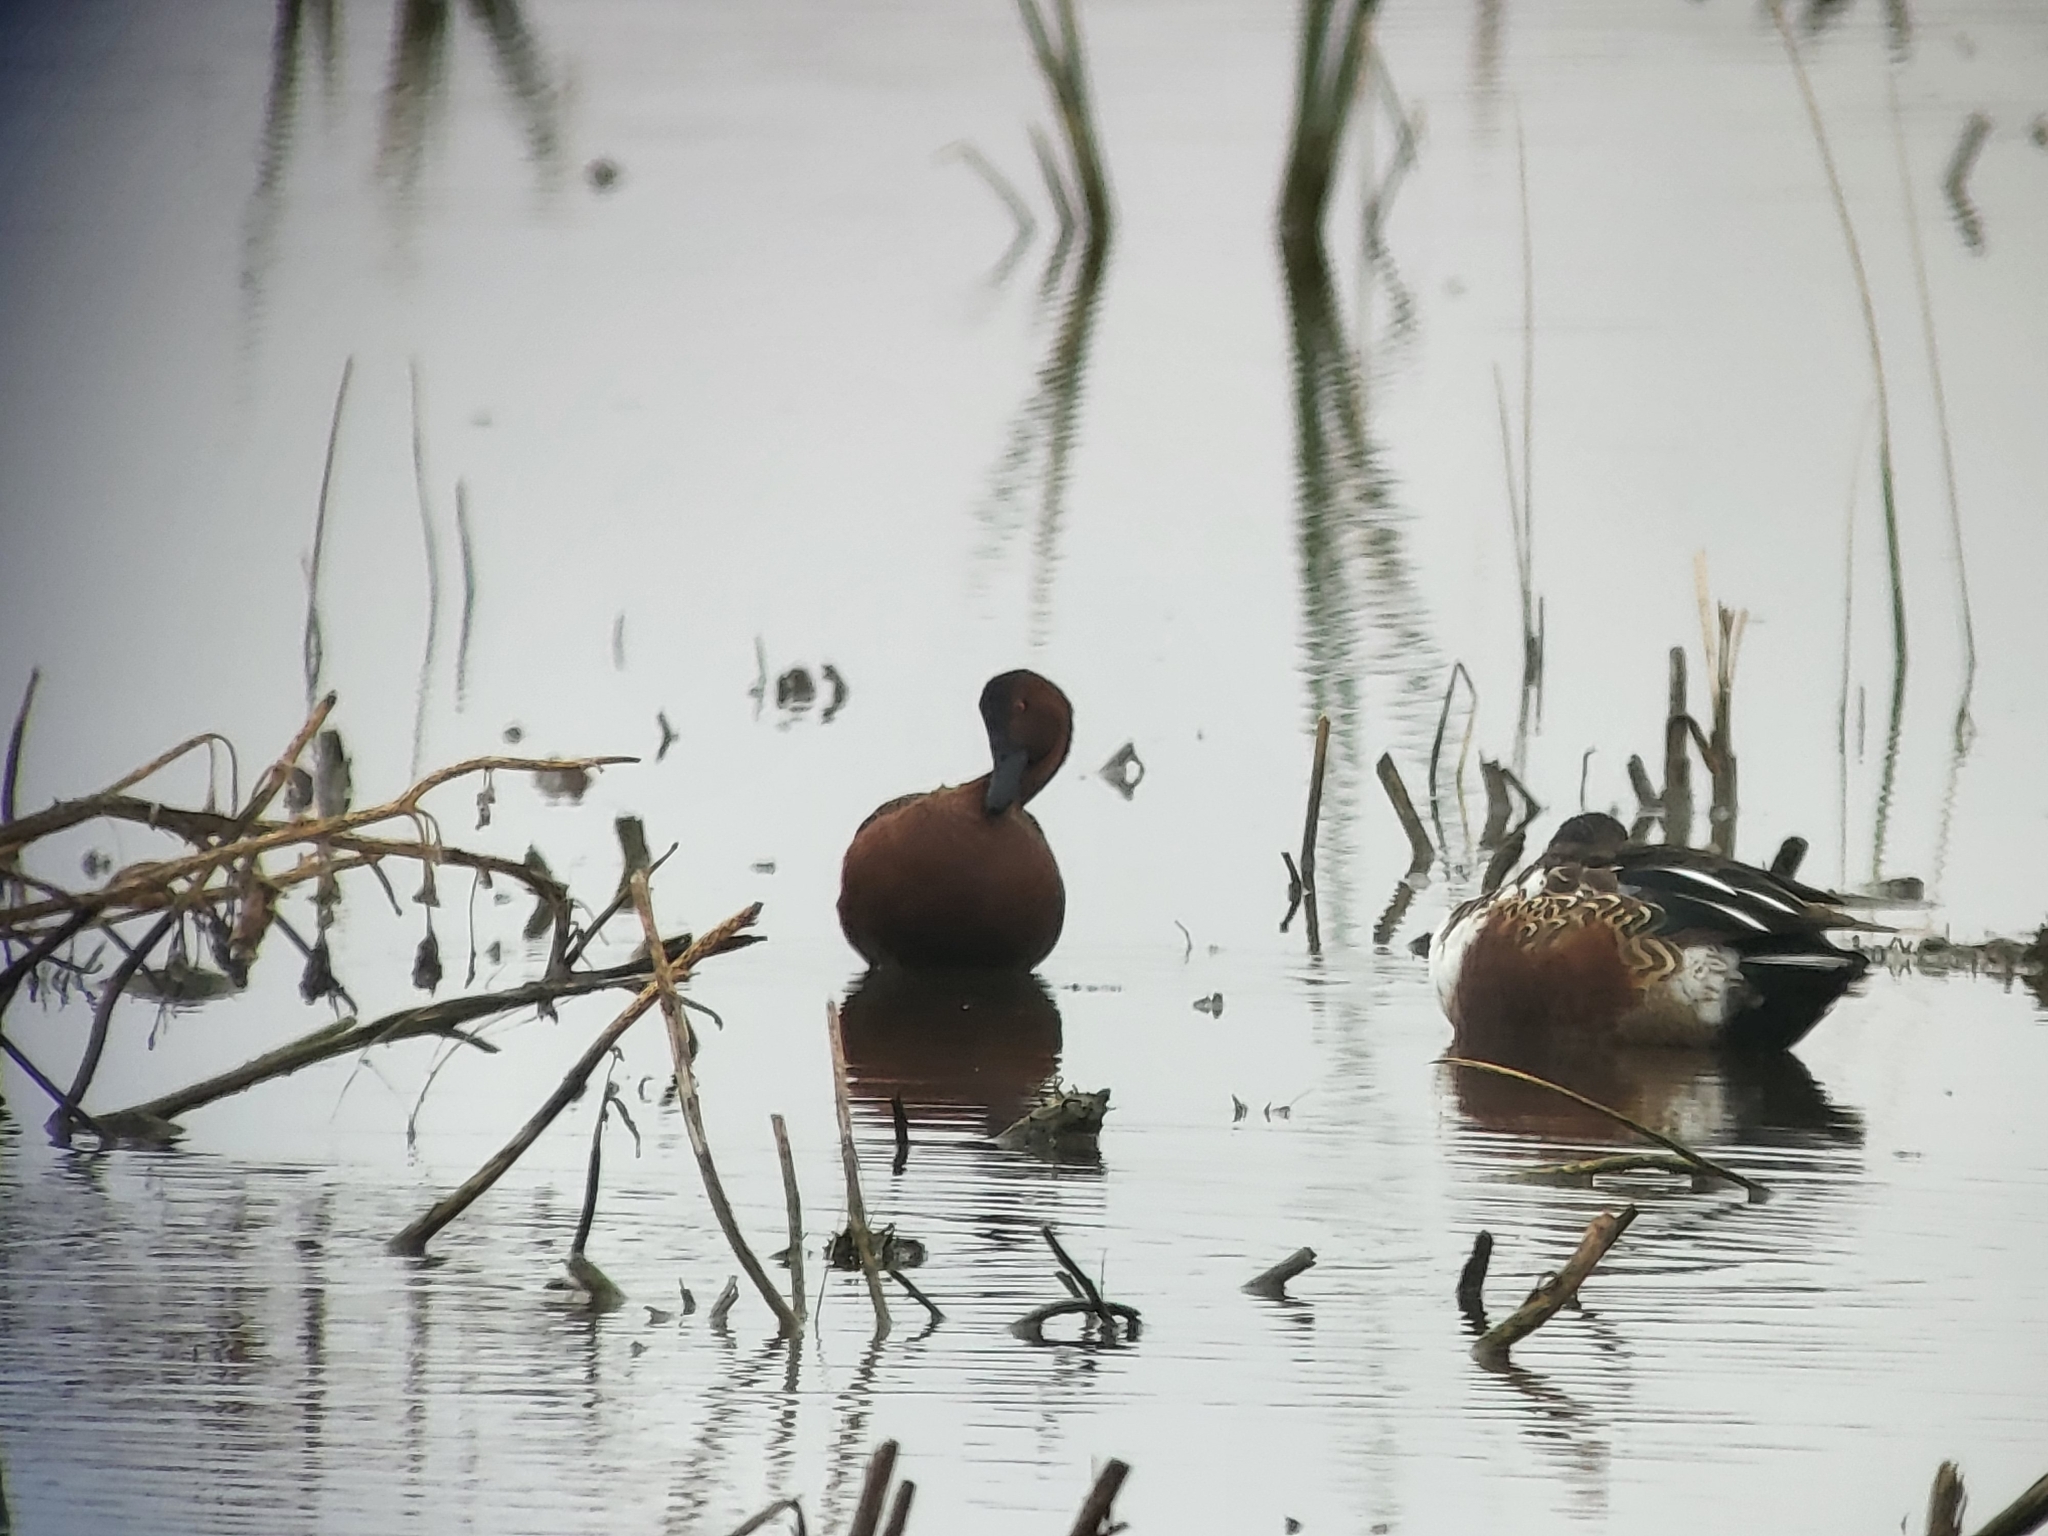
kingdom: Animalia
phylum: Chordata
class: Aves
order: Anseriformes
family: Anatidae
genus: Spatula
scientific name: Spatula cyanoptera
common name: Cinnamon teal
